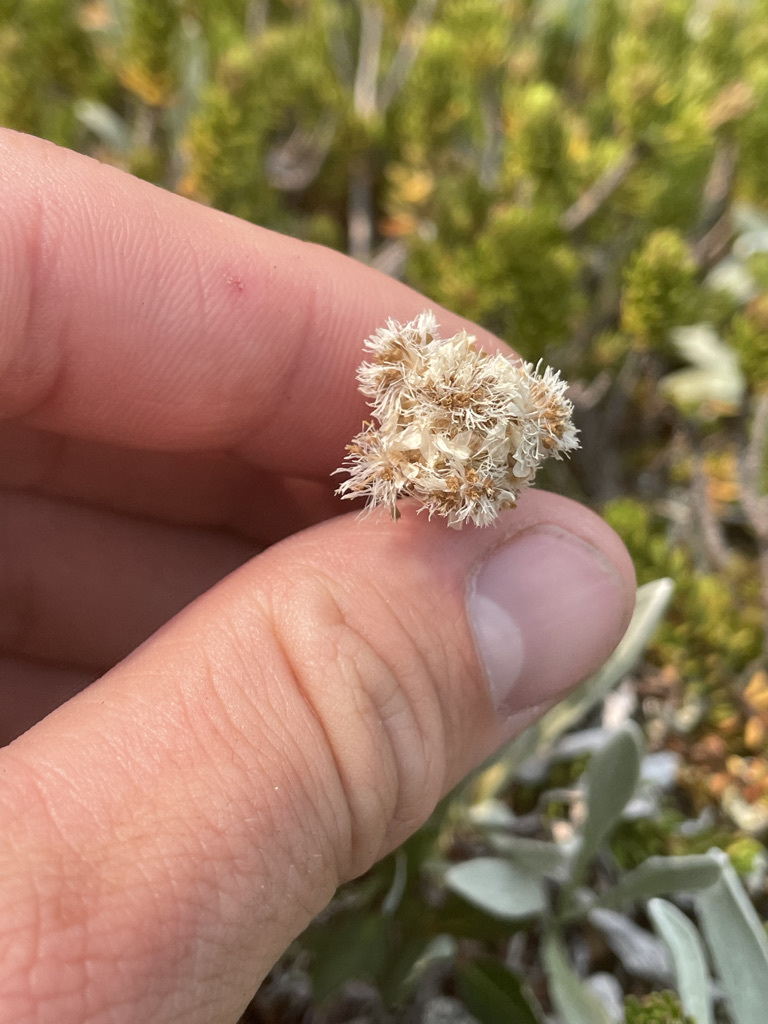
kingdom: Plantae
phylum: Tracheophyta
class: Magnoliopsida
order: Asterales
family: Asteraceae
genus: Antennaria
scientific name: Antennaria lanata
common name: Woolly pussytoes
